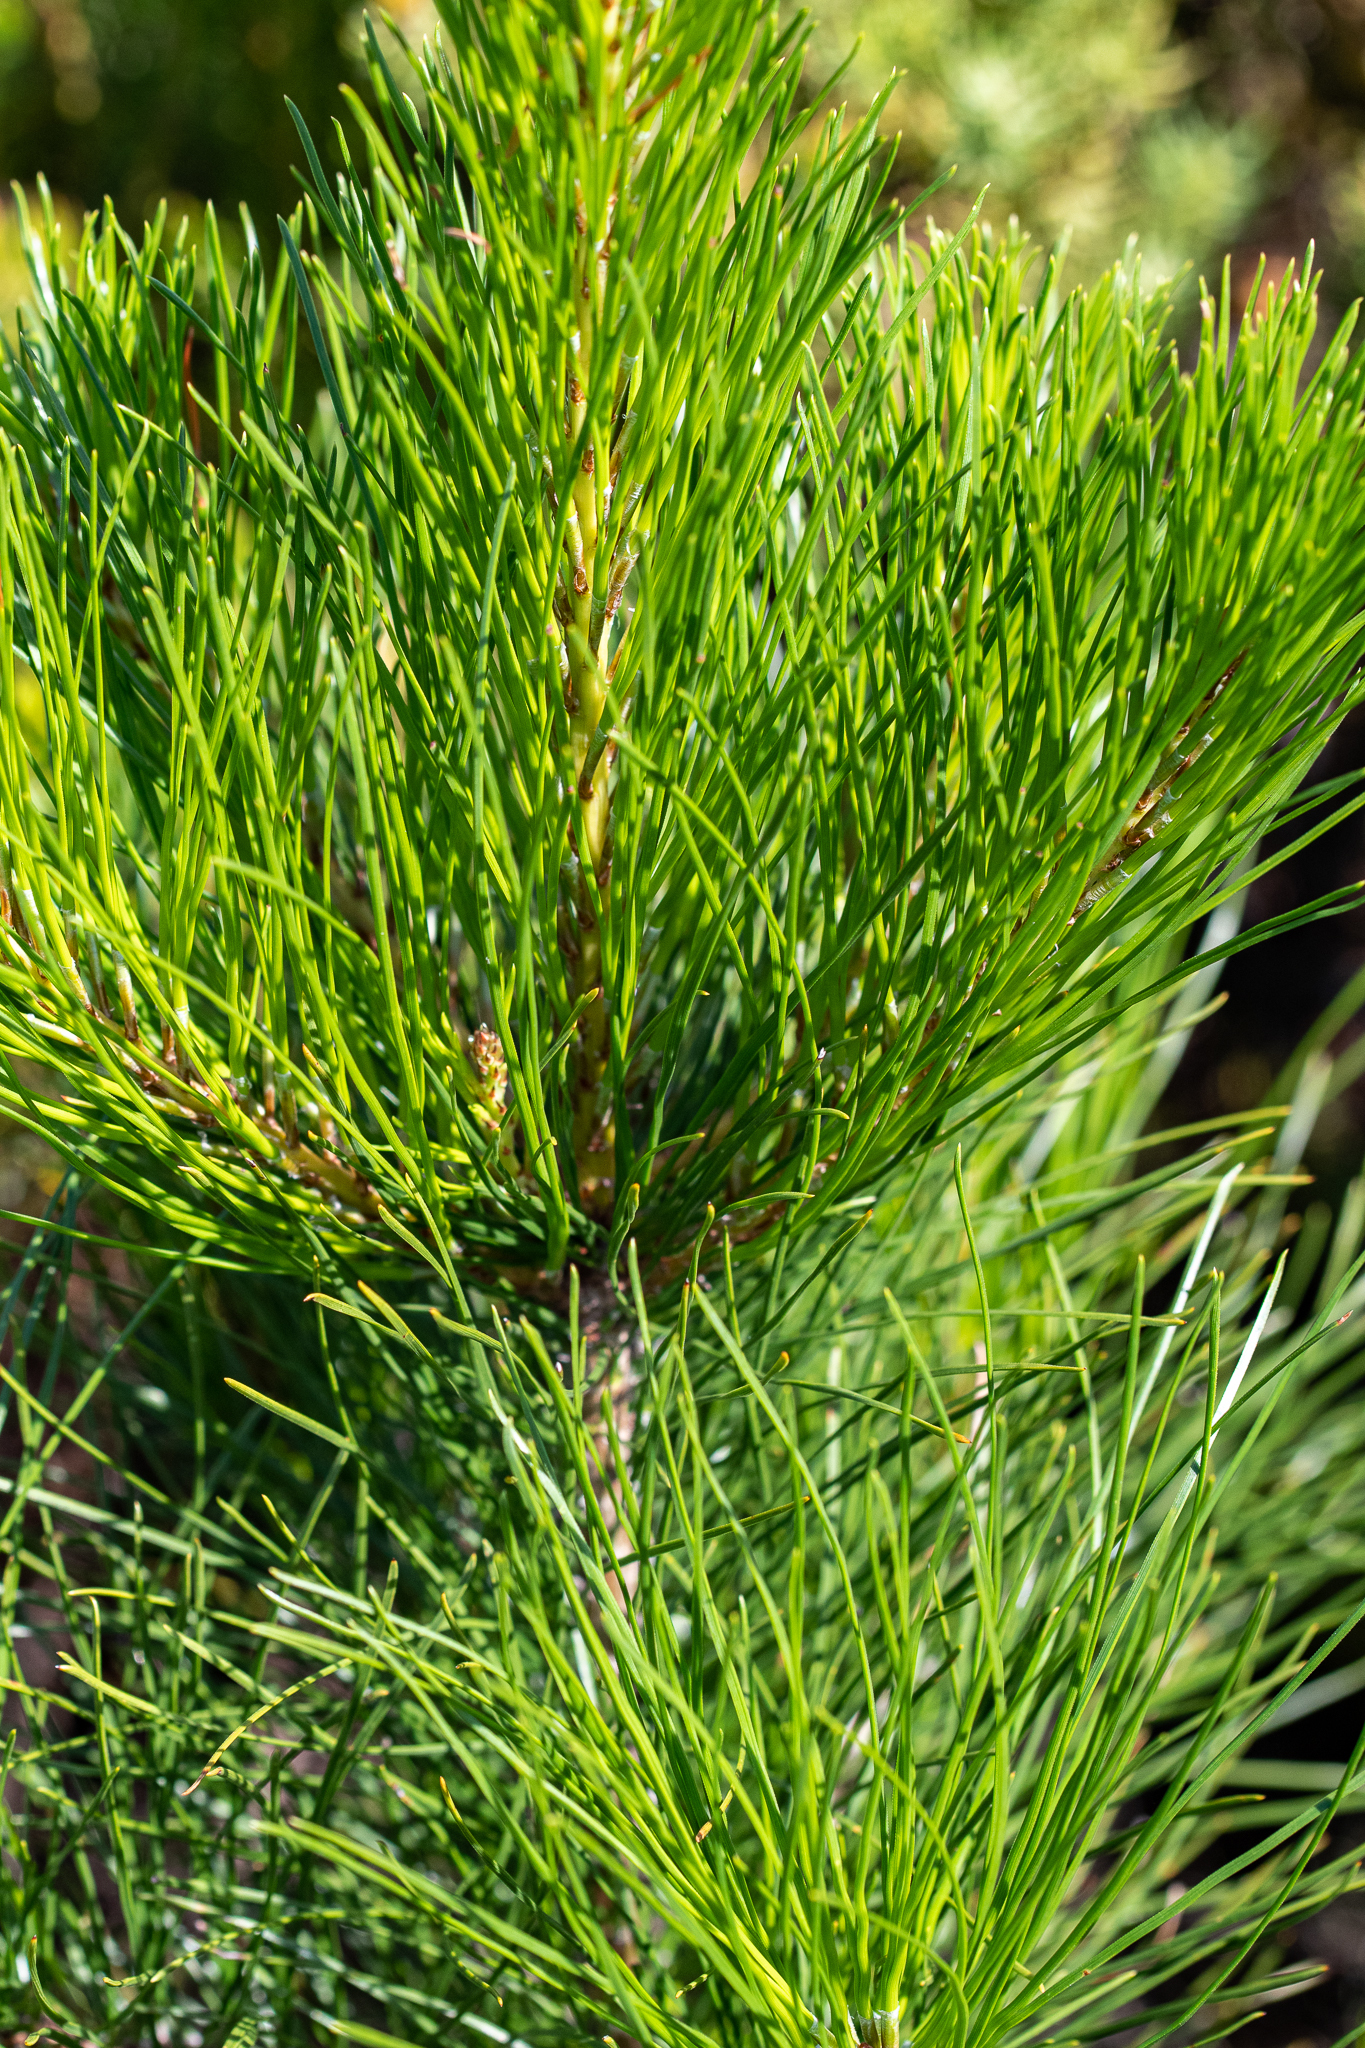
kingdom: Plantae
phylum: Tracheophyta
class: Pinopsida
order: Pinales
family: Pinaceae
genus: Pinus
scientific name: Pinus pinaster
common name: Maritime pine
